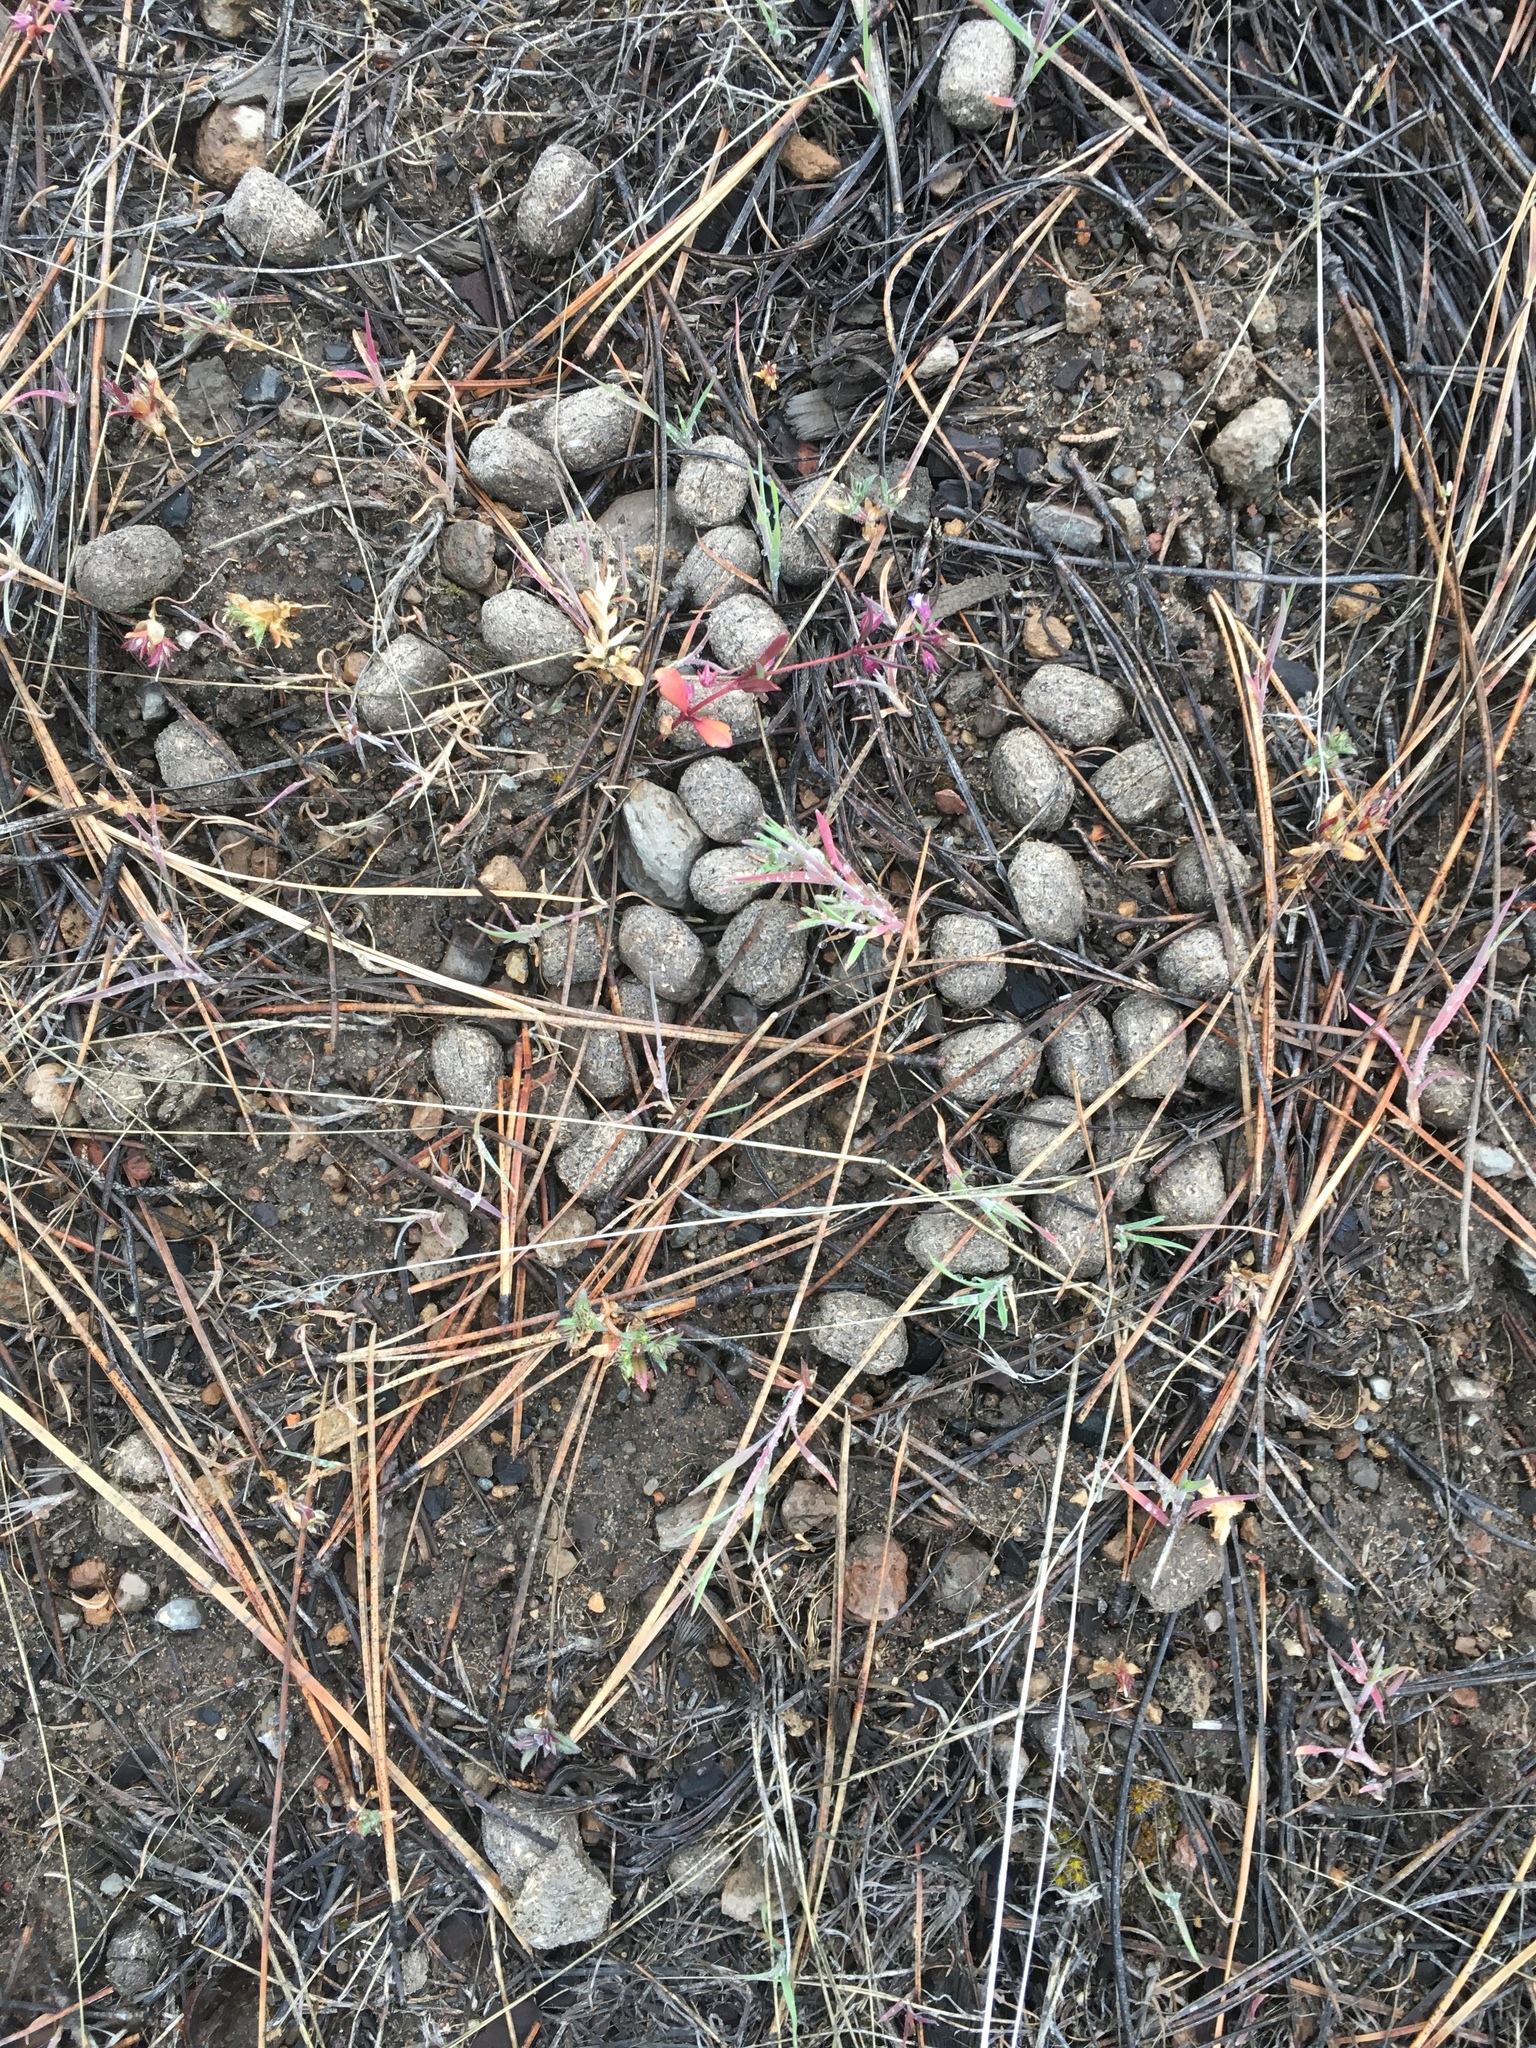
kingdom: Animalia
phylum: Chordata
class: Mammalia
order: Artiodactyla
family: Cervidae
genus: Odocoileus
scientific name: Odocoileus hemionus
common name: Mule deer
